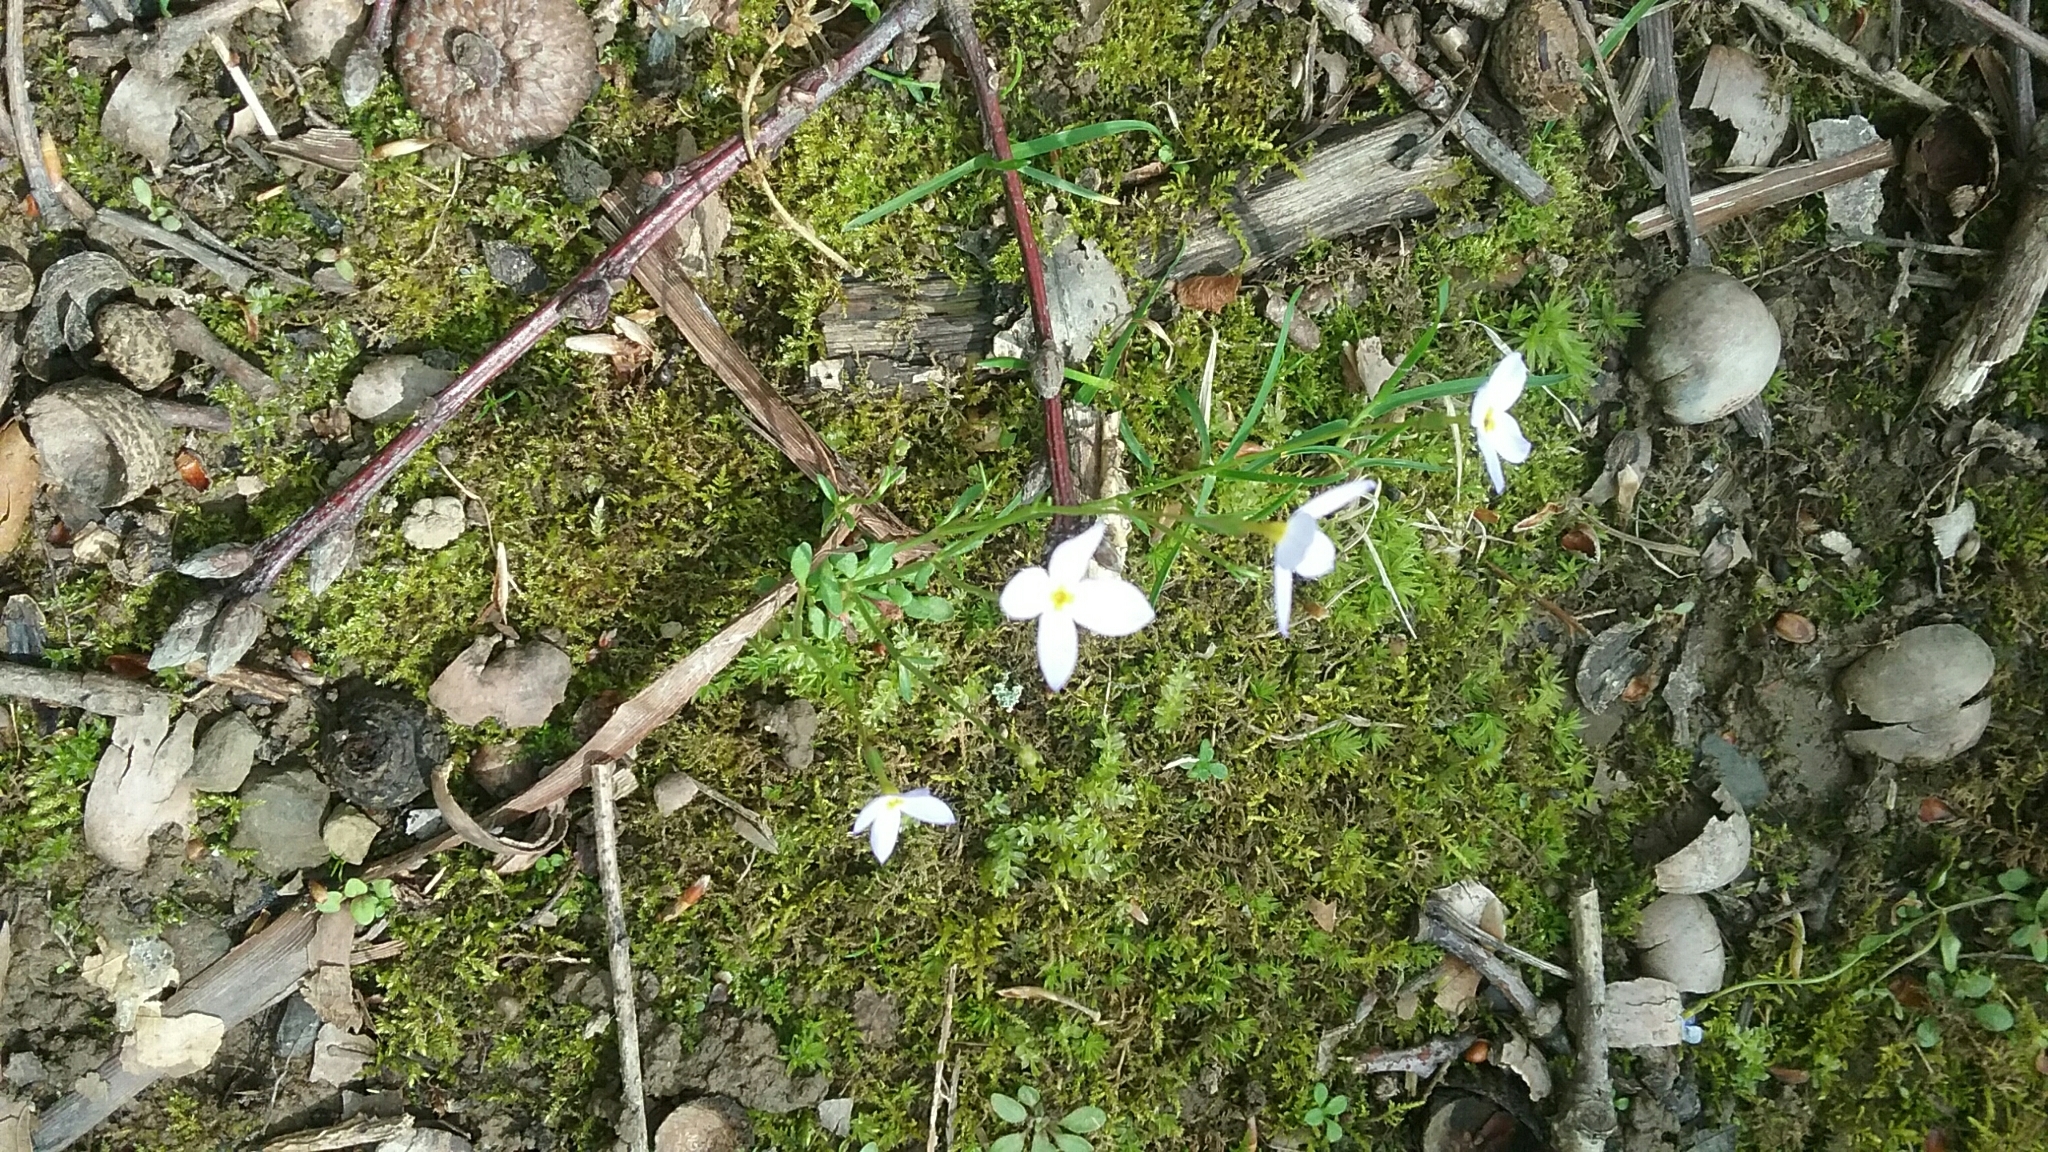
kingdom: Plantae
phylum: Tracheophyta
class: Magnoliopsida
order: Gentianales
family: Rubiaceae
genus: Houstonia
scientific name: Houstonia caerulea
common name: Bluets
